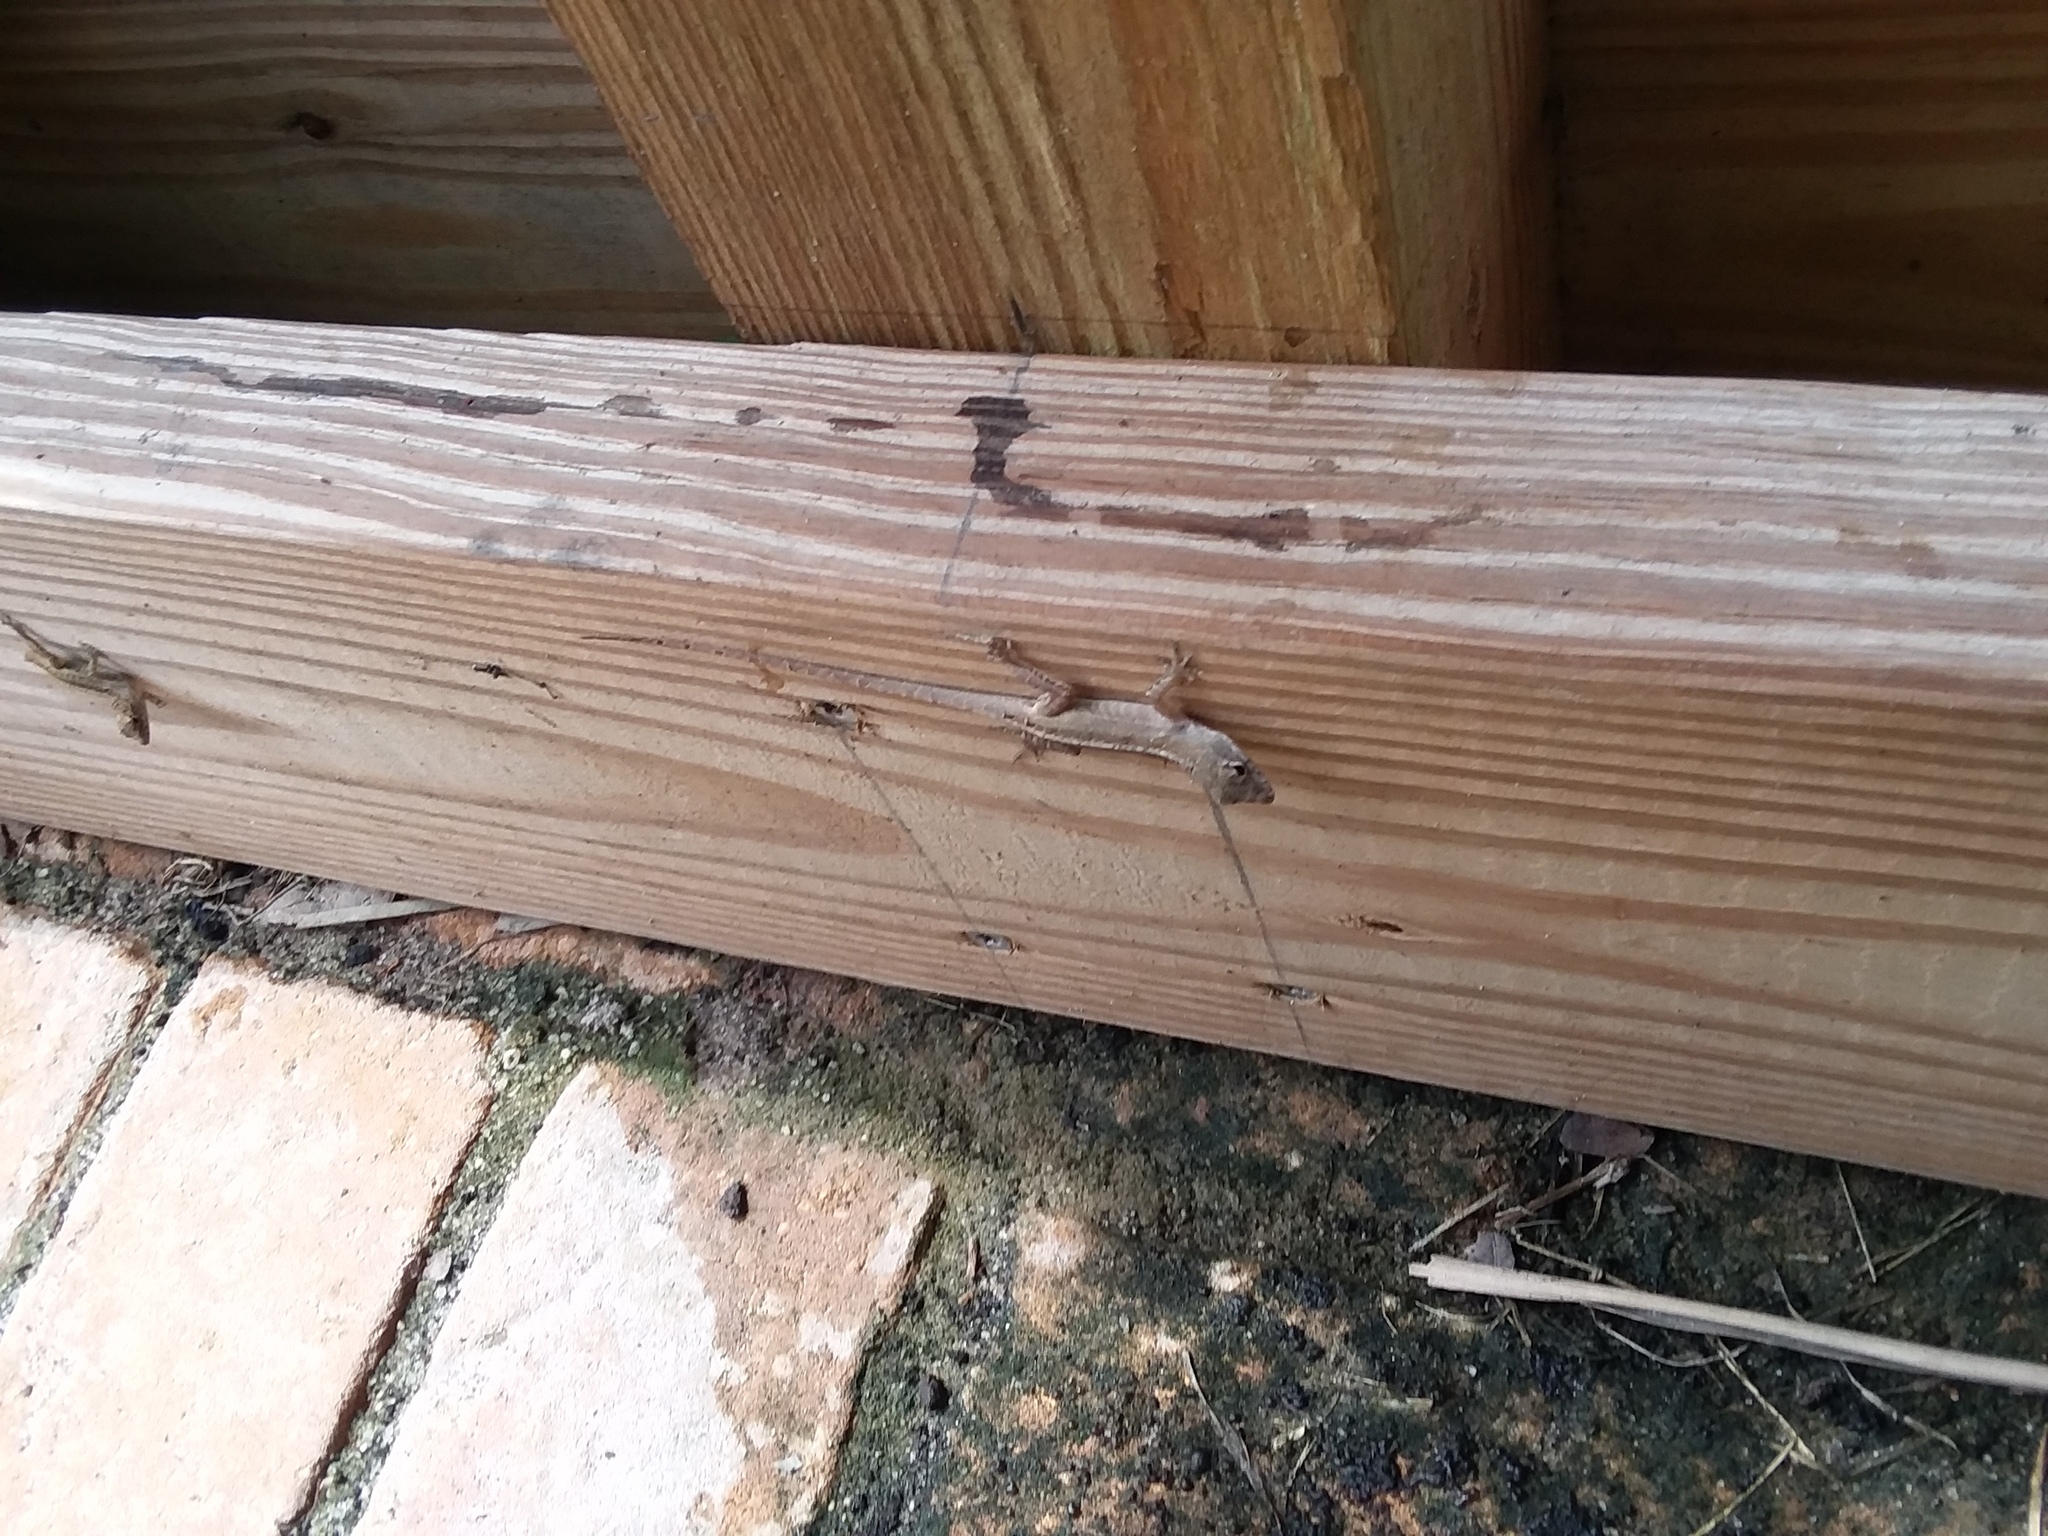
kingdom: Animalia
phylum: Chordata
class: Squamata
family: Dactyloidae
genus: Anolis
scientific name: Anolis sagrei
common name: Brown anole
